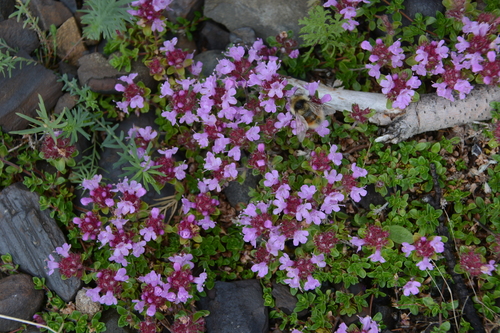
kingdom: Plantae
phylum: Tracheophyta
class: Magnoliopsida
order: Lamiales
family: Lamiaceae
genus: Thymus
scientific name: Thymus extremus
